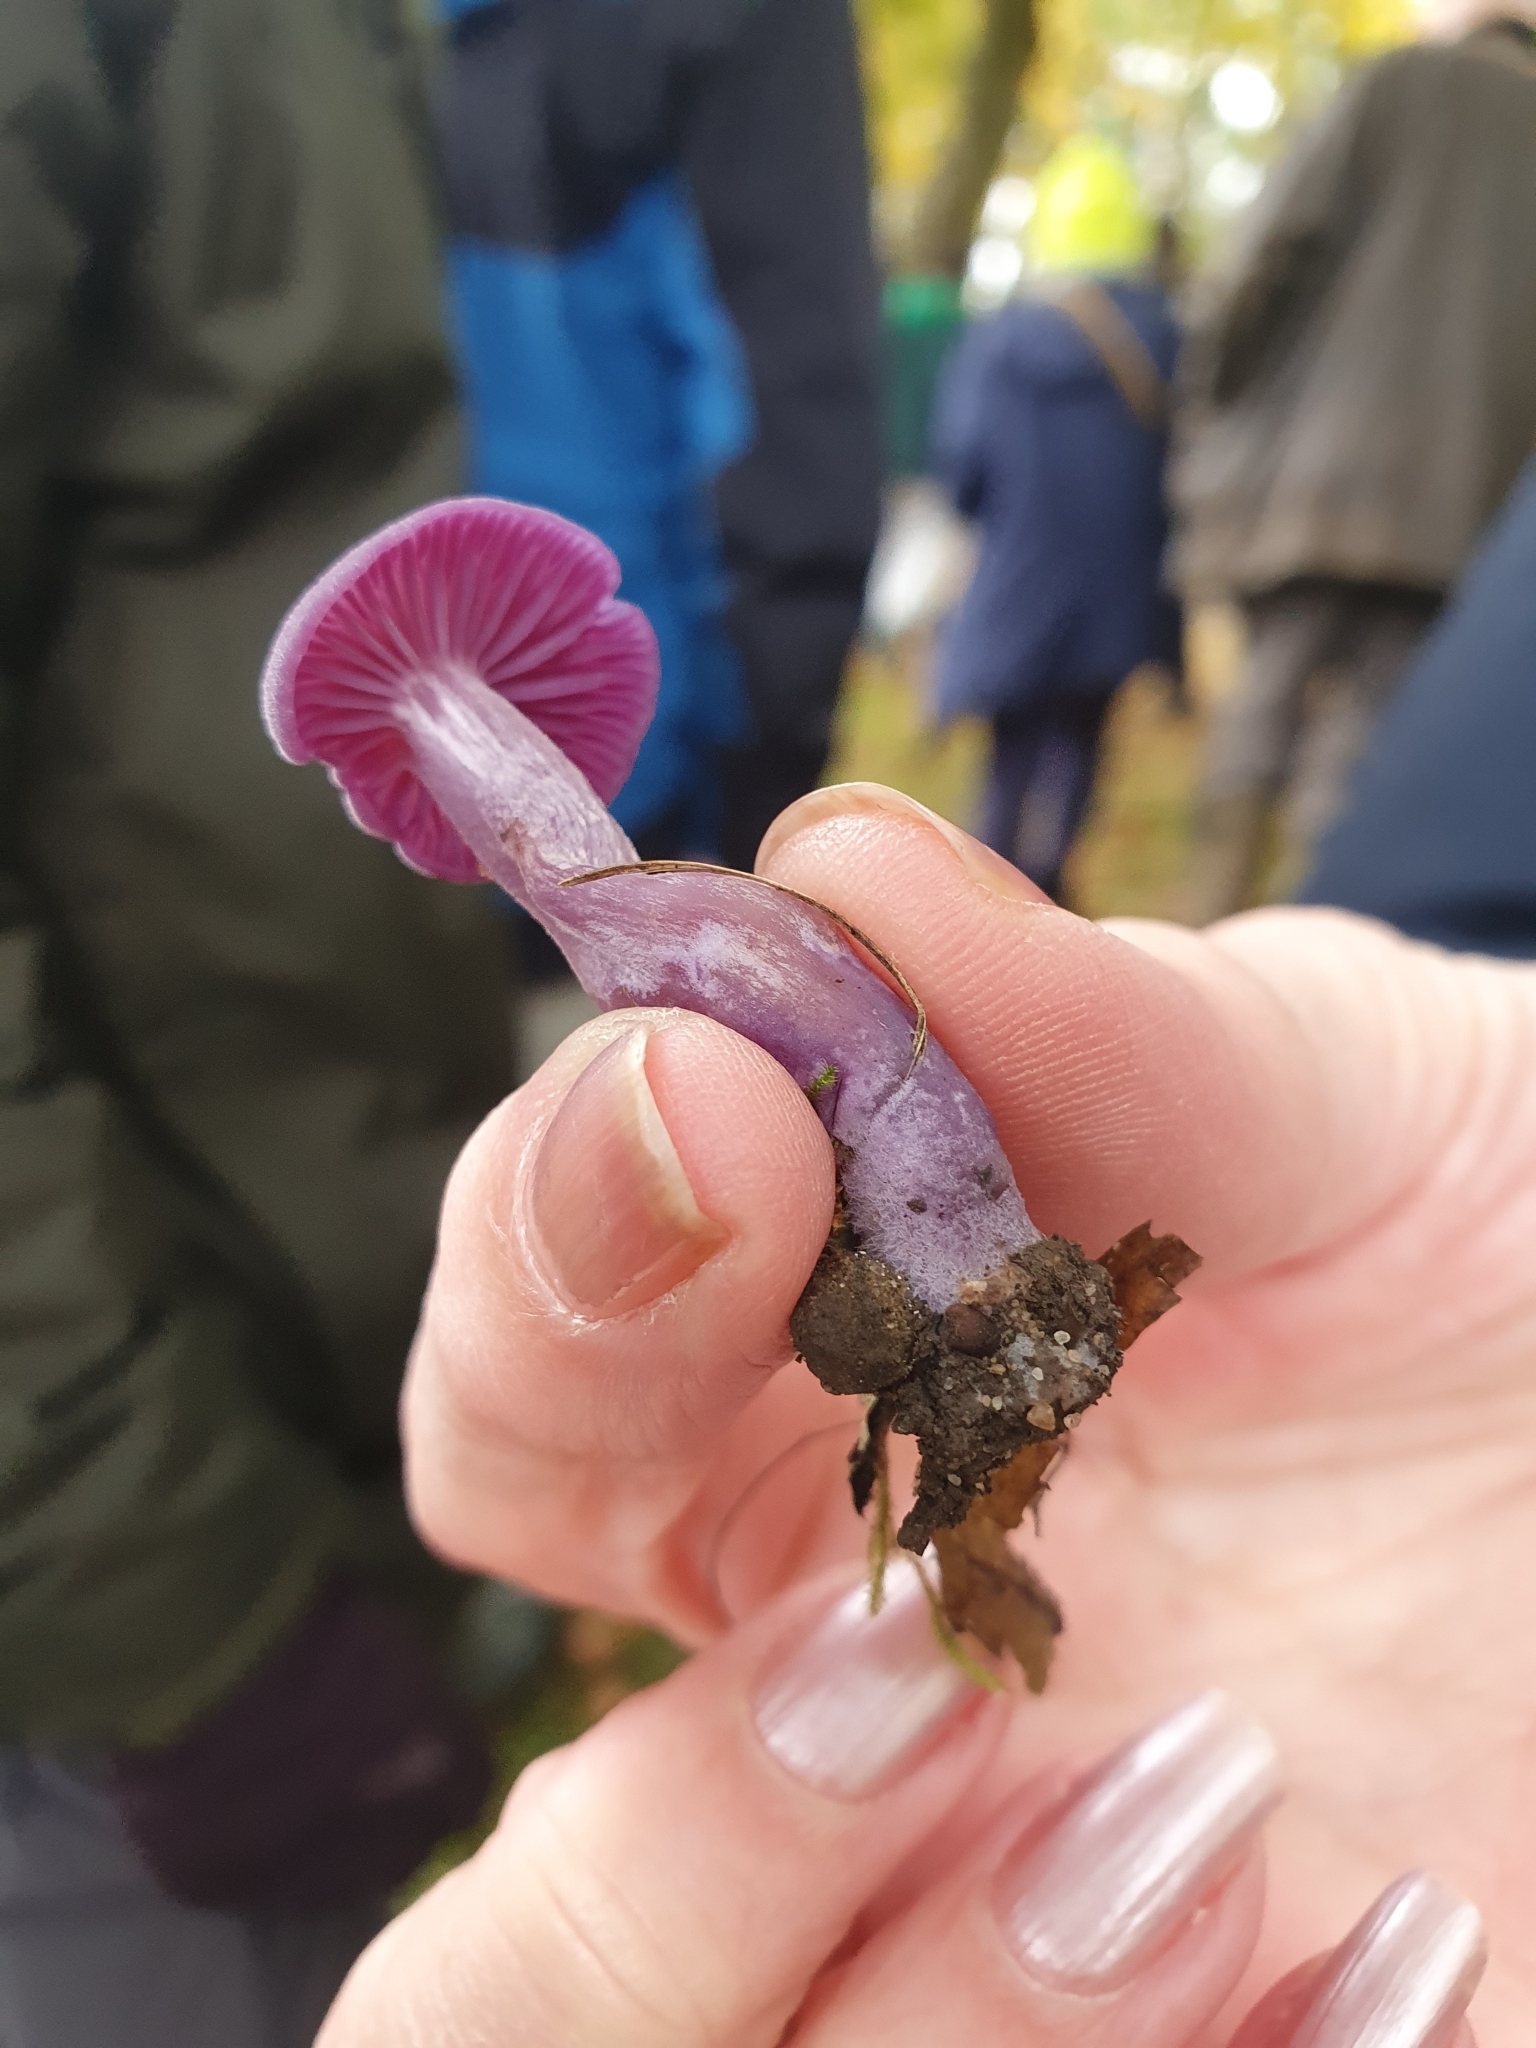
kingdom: Fungi
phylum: Basidiomycota
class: Agaricomycetes
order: Agaricales
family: Hydnangiaceae
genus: Laccaria
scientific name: Laccaria amethystina
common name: Amethyst deceiver
